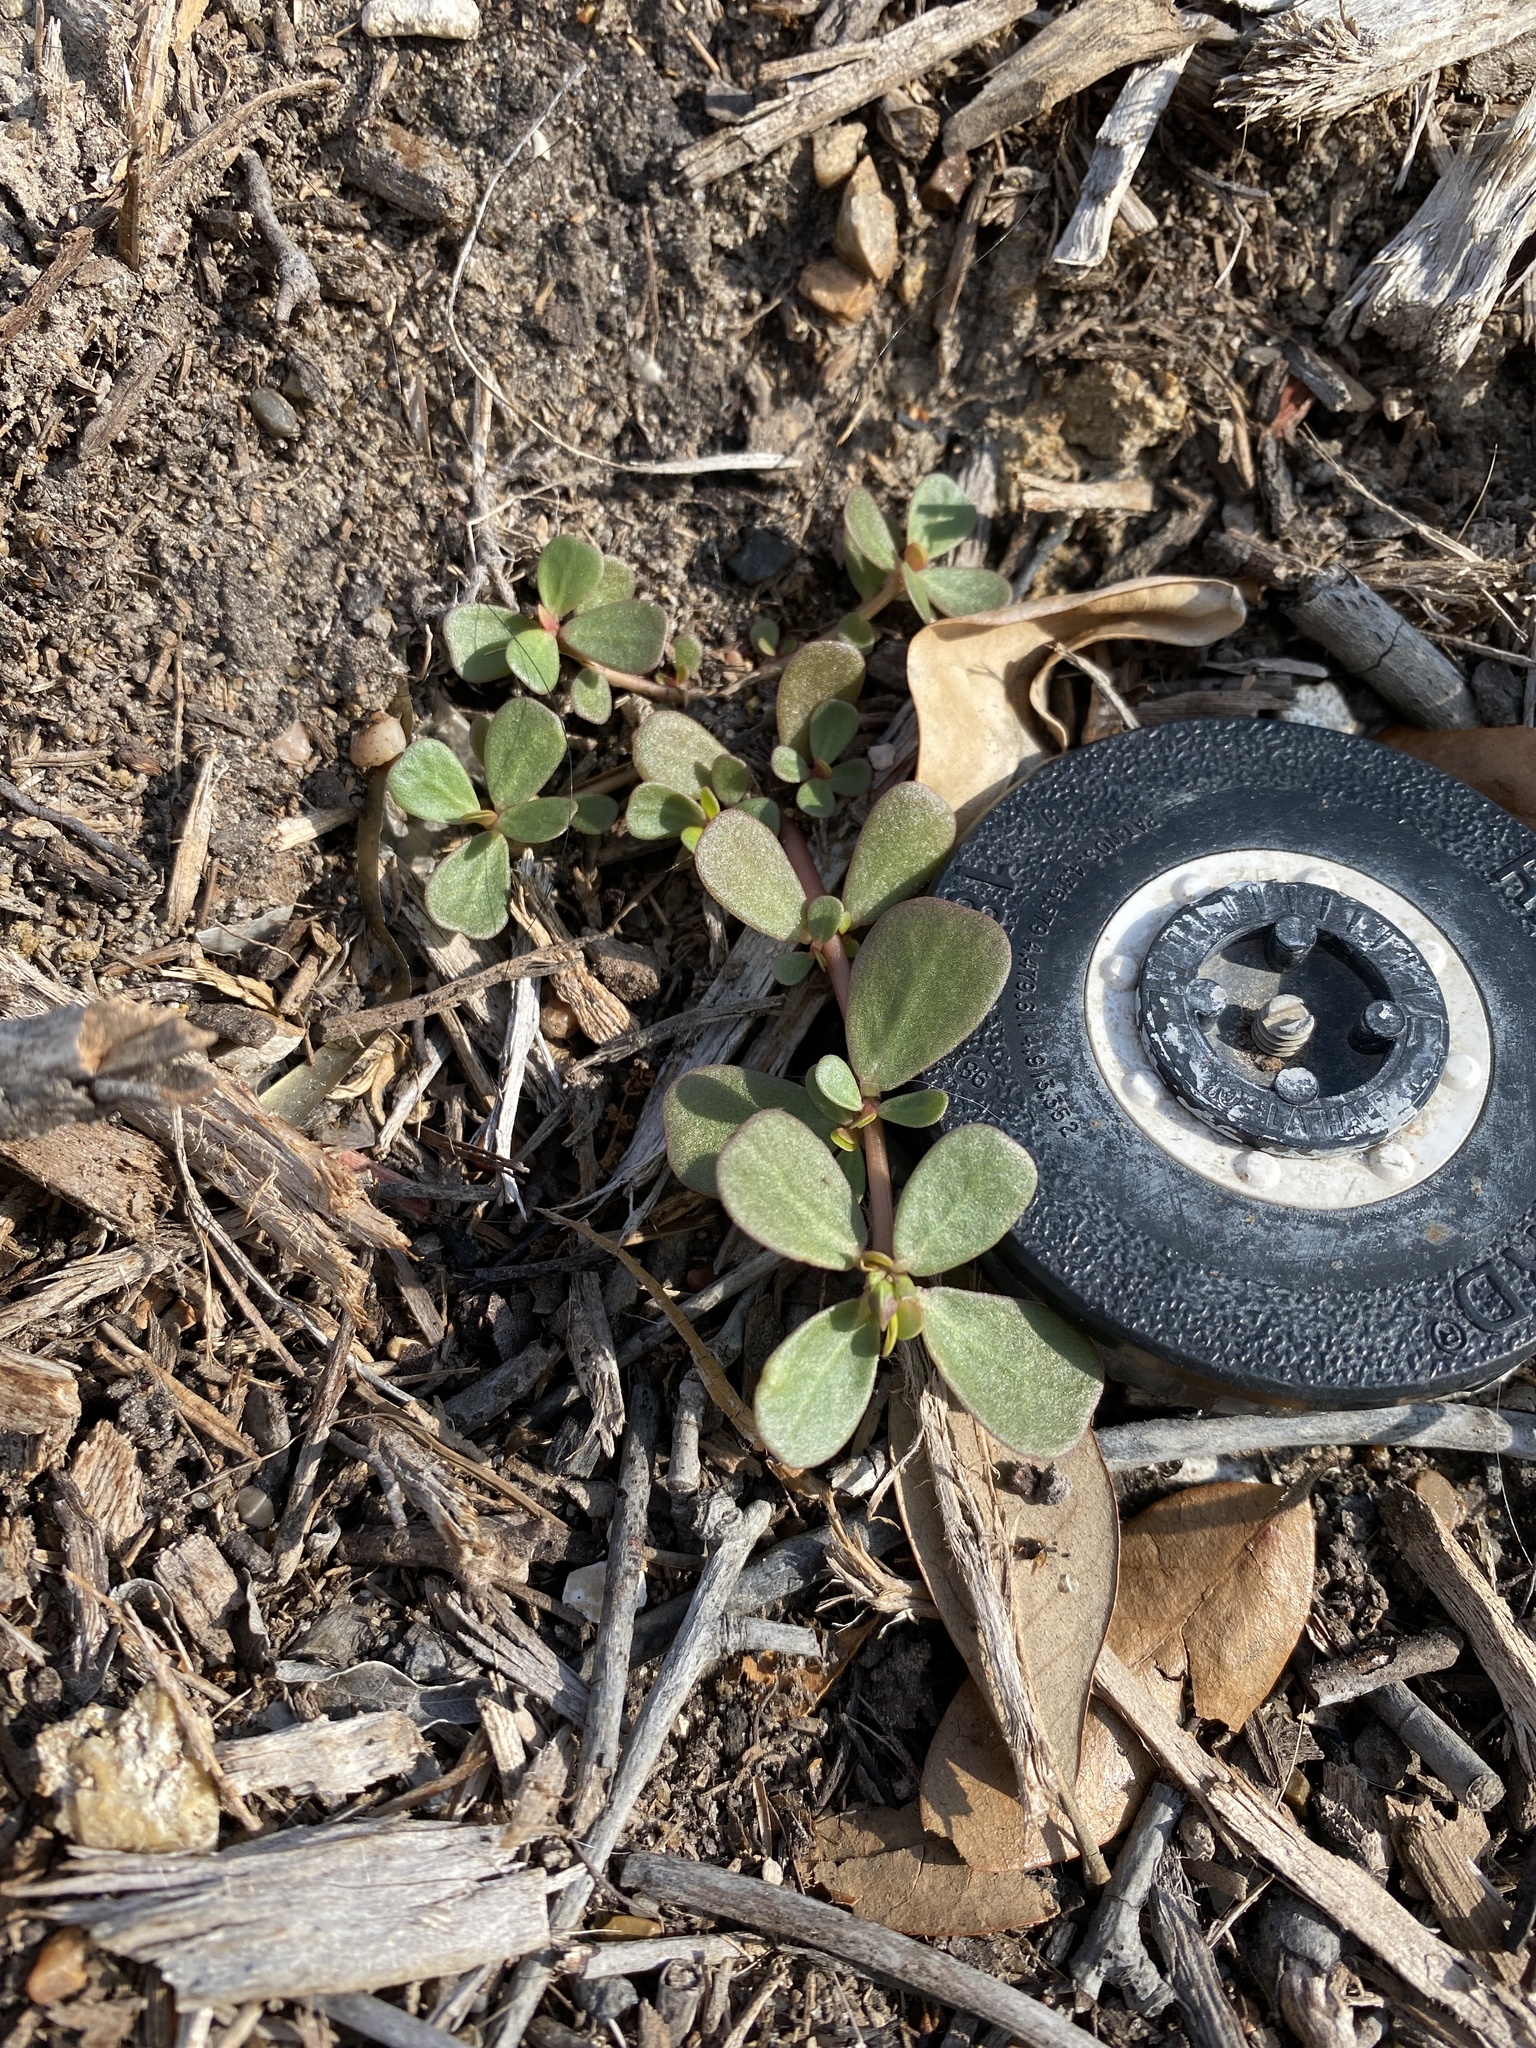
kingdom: Plantae
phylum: Tracheophyta
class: Magnoliopsida
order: Caryophyllales
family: Portulacaceae
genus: Portulaca
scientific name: Portulaca oleracea
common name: Common purslane
